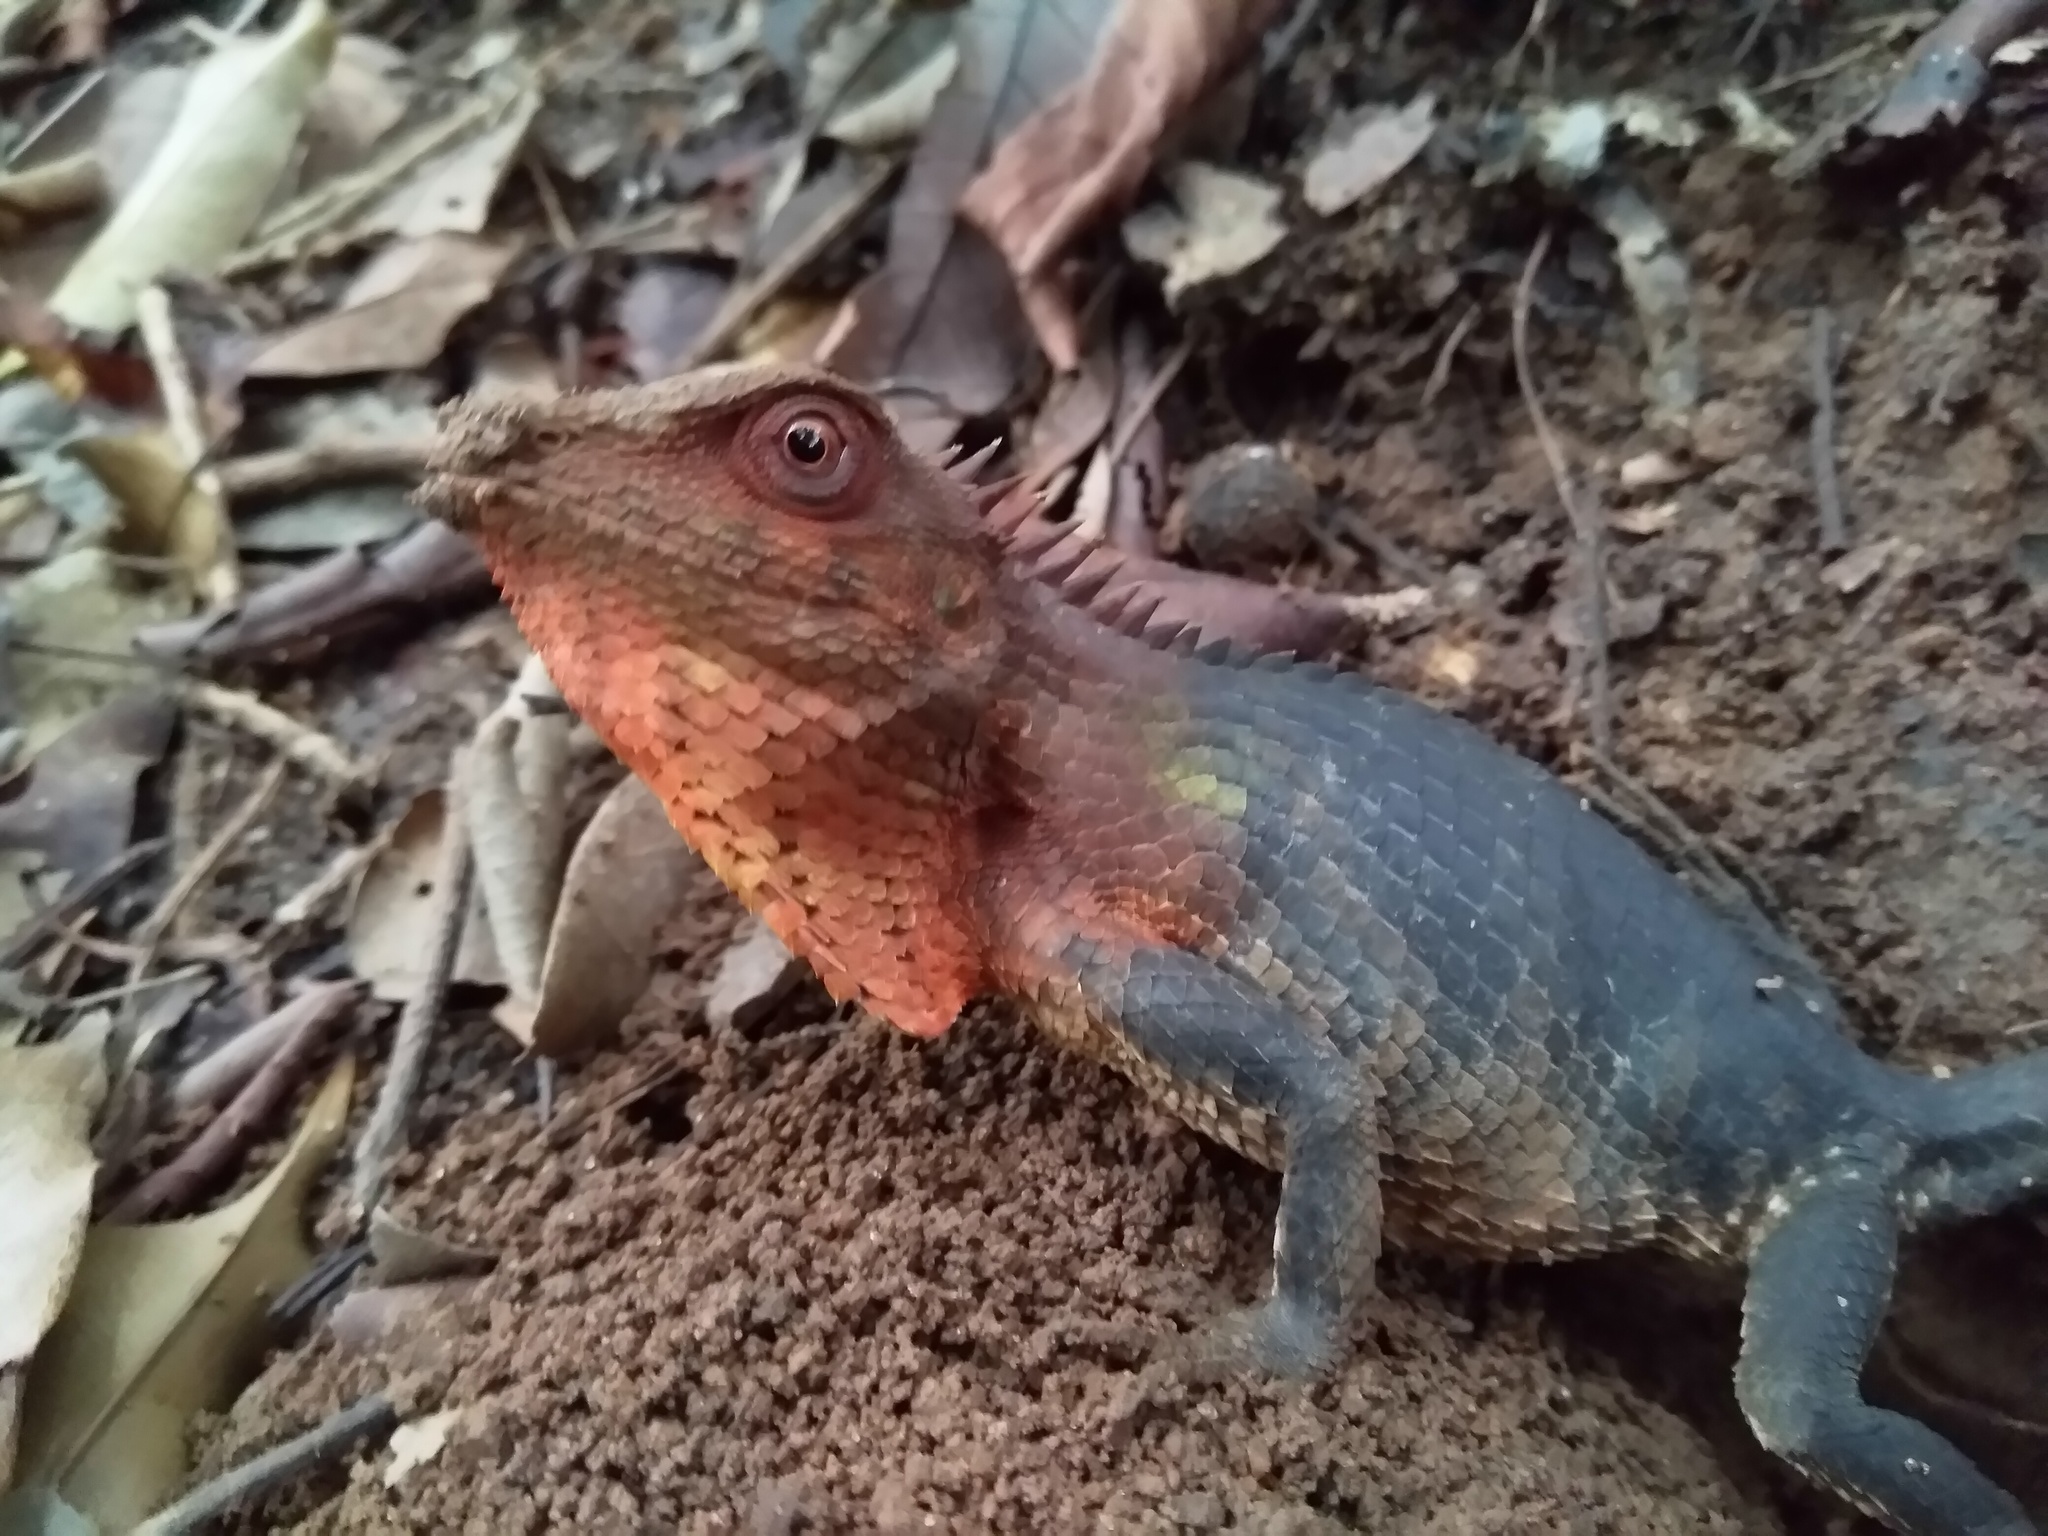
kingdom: Animalia
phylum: Chordata
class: Squamata
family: Agamidae
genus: Calotes
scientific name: Calotes versicolor
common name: Oriental garden lizard
